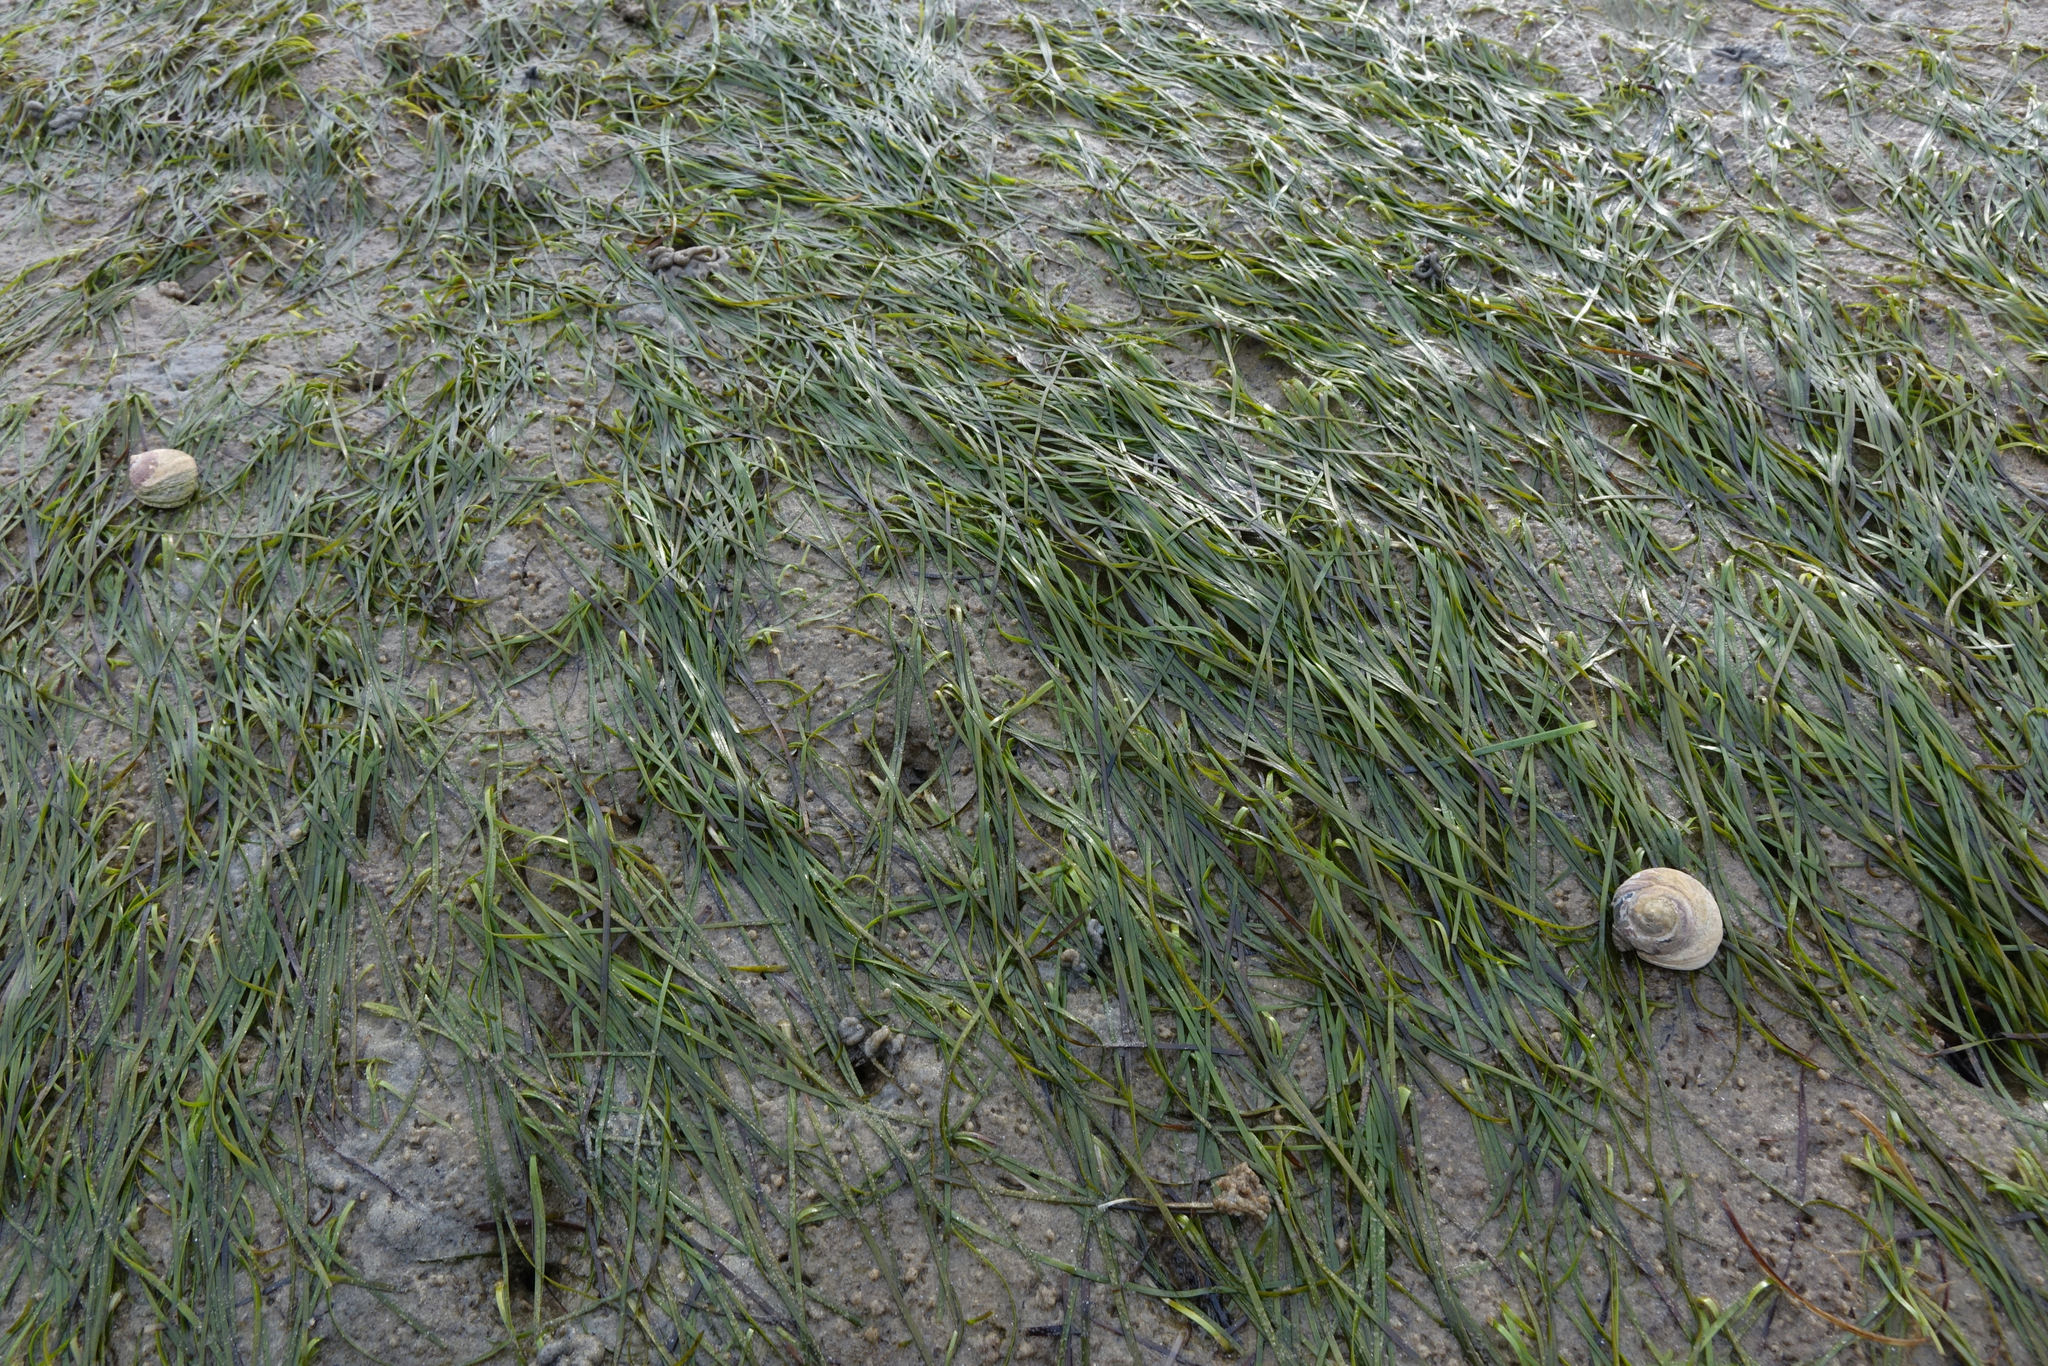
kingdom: Plantae
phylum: Tracheophyta
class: Liliopsida
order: Alismatales
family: Zosteraceae
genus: Zostera
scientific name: Zostera novazelandica
